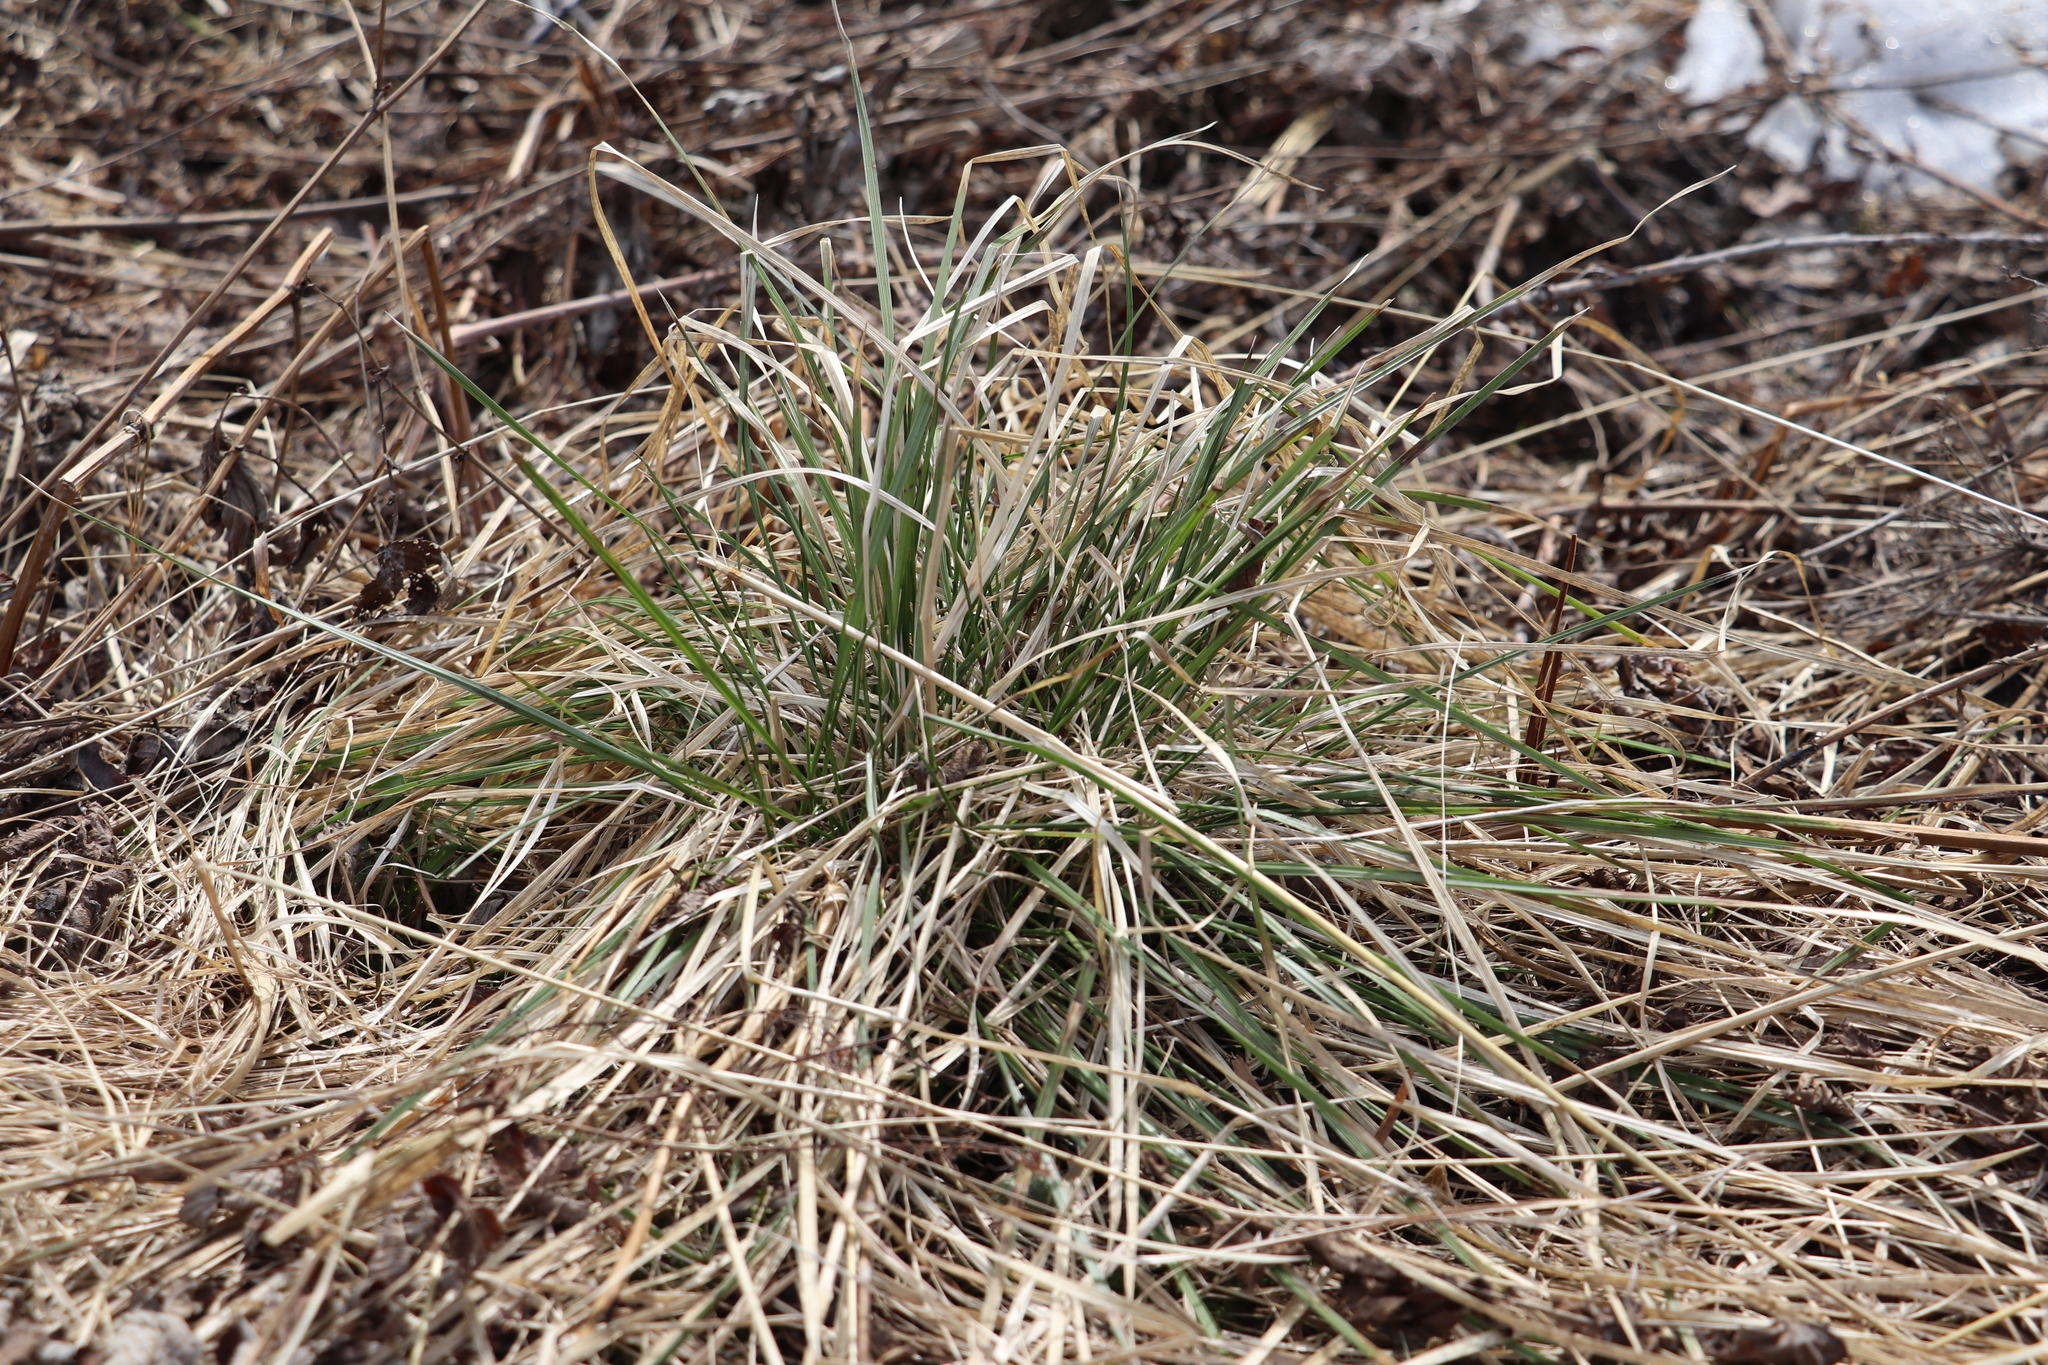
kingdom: Plantae
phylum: Tracheophyta
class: Liliopsida
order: Poales
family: Poaceae
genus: Deschampsia
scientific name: Deschampsia cespitosa
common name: Tufted hair-grass
